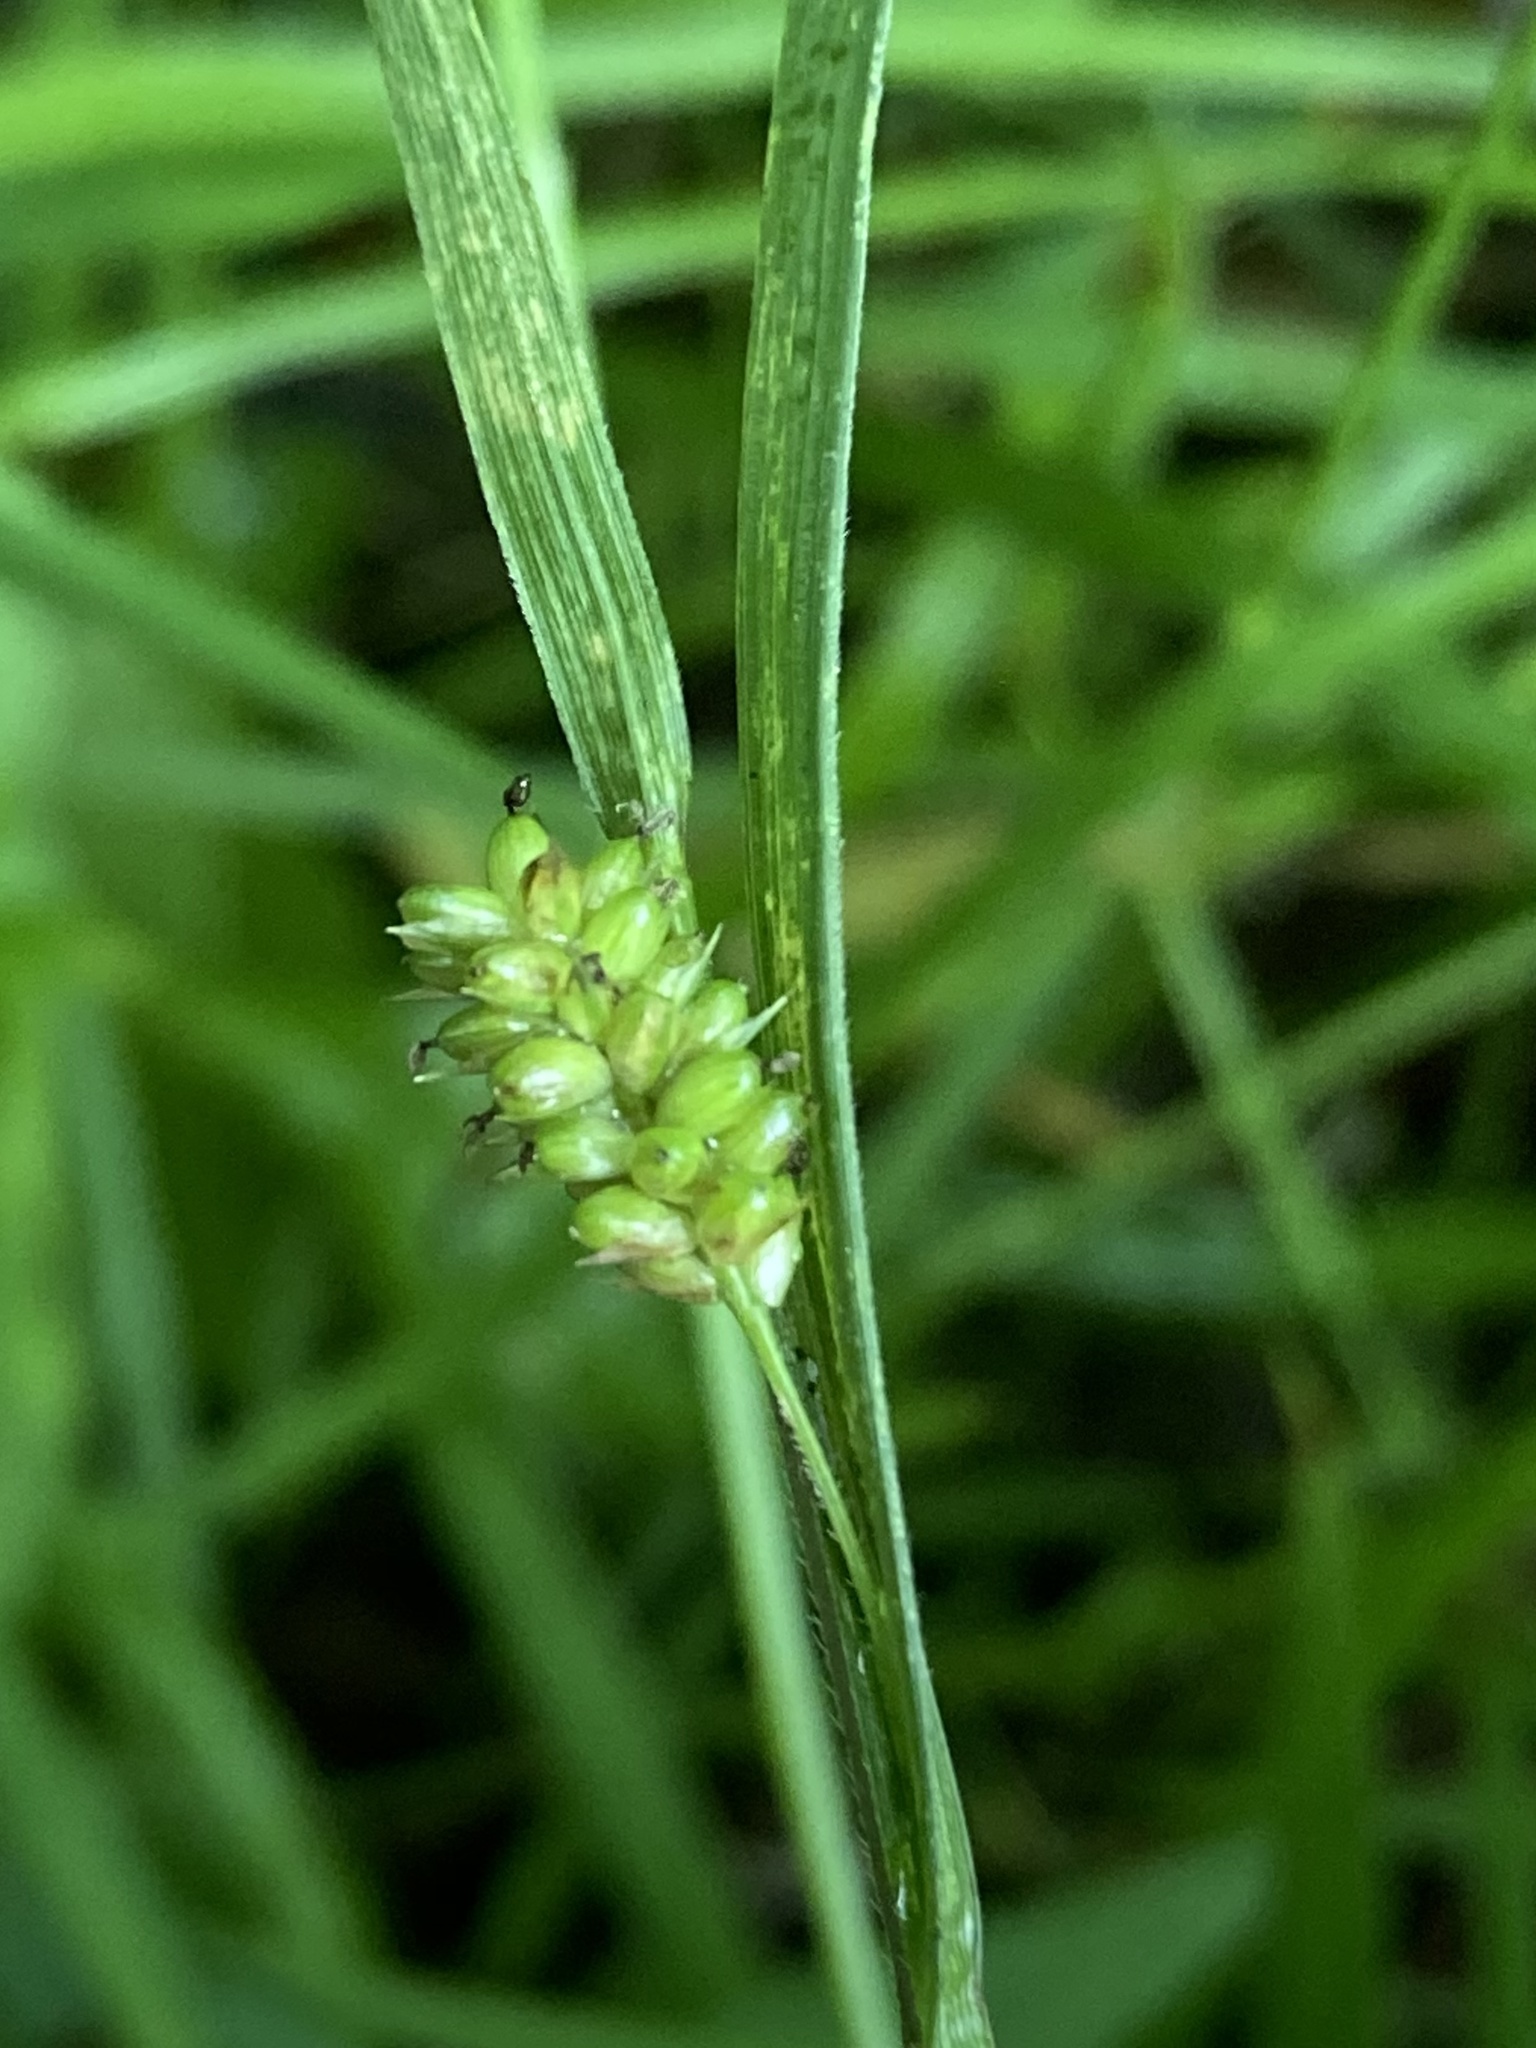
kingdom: Plantae
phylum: Tracheophyta
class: Liliopsida
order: Poales
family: Cyperaceae
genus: Carex
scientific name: Carex pallescens
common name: Pale sedge
